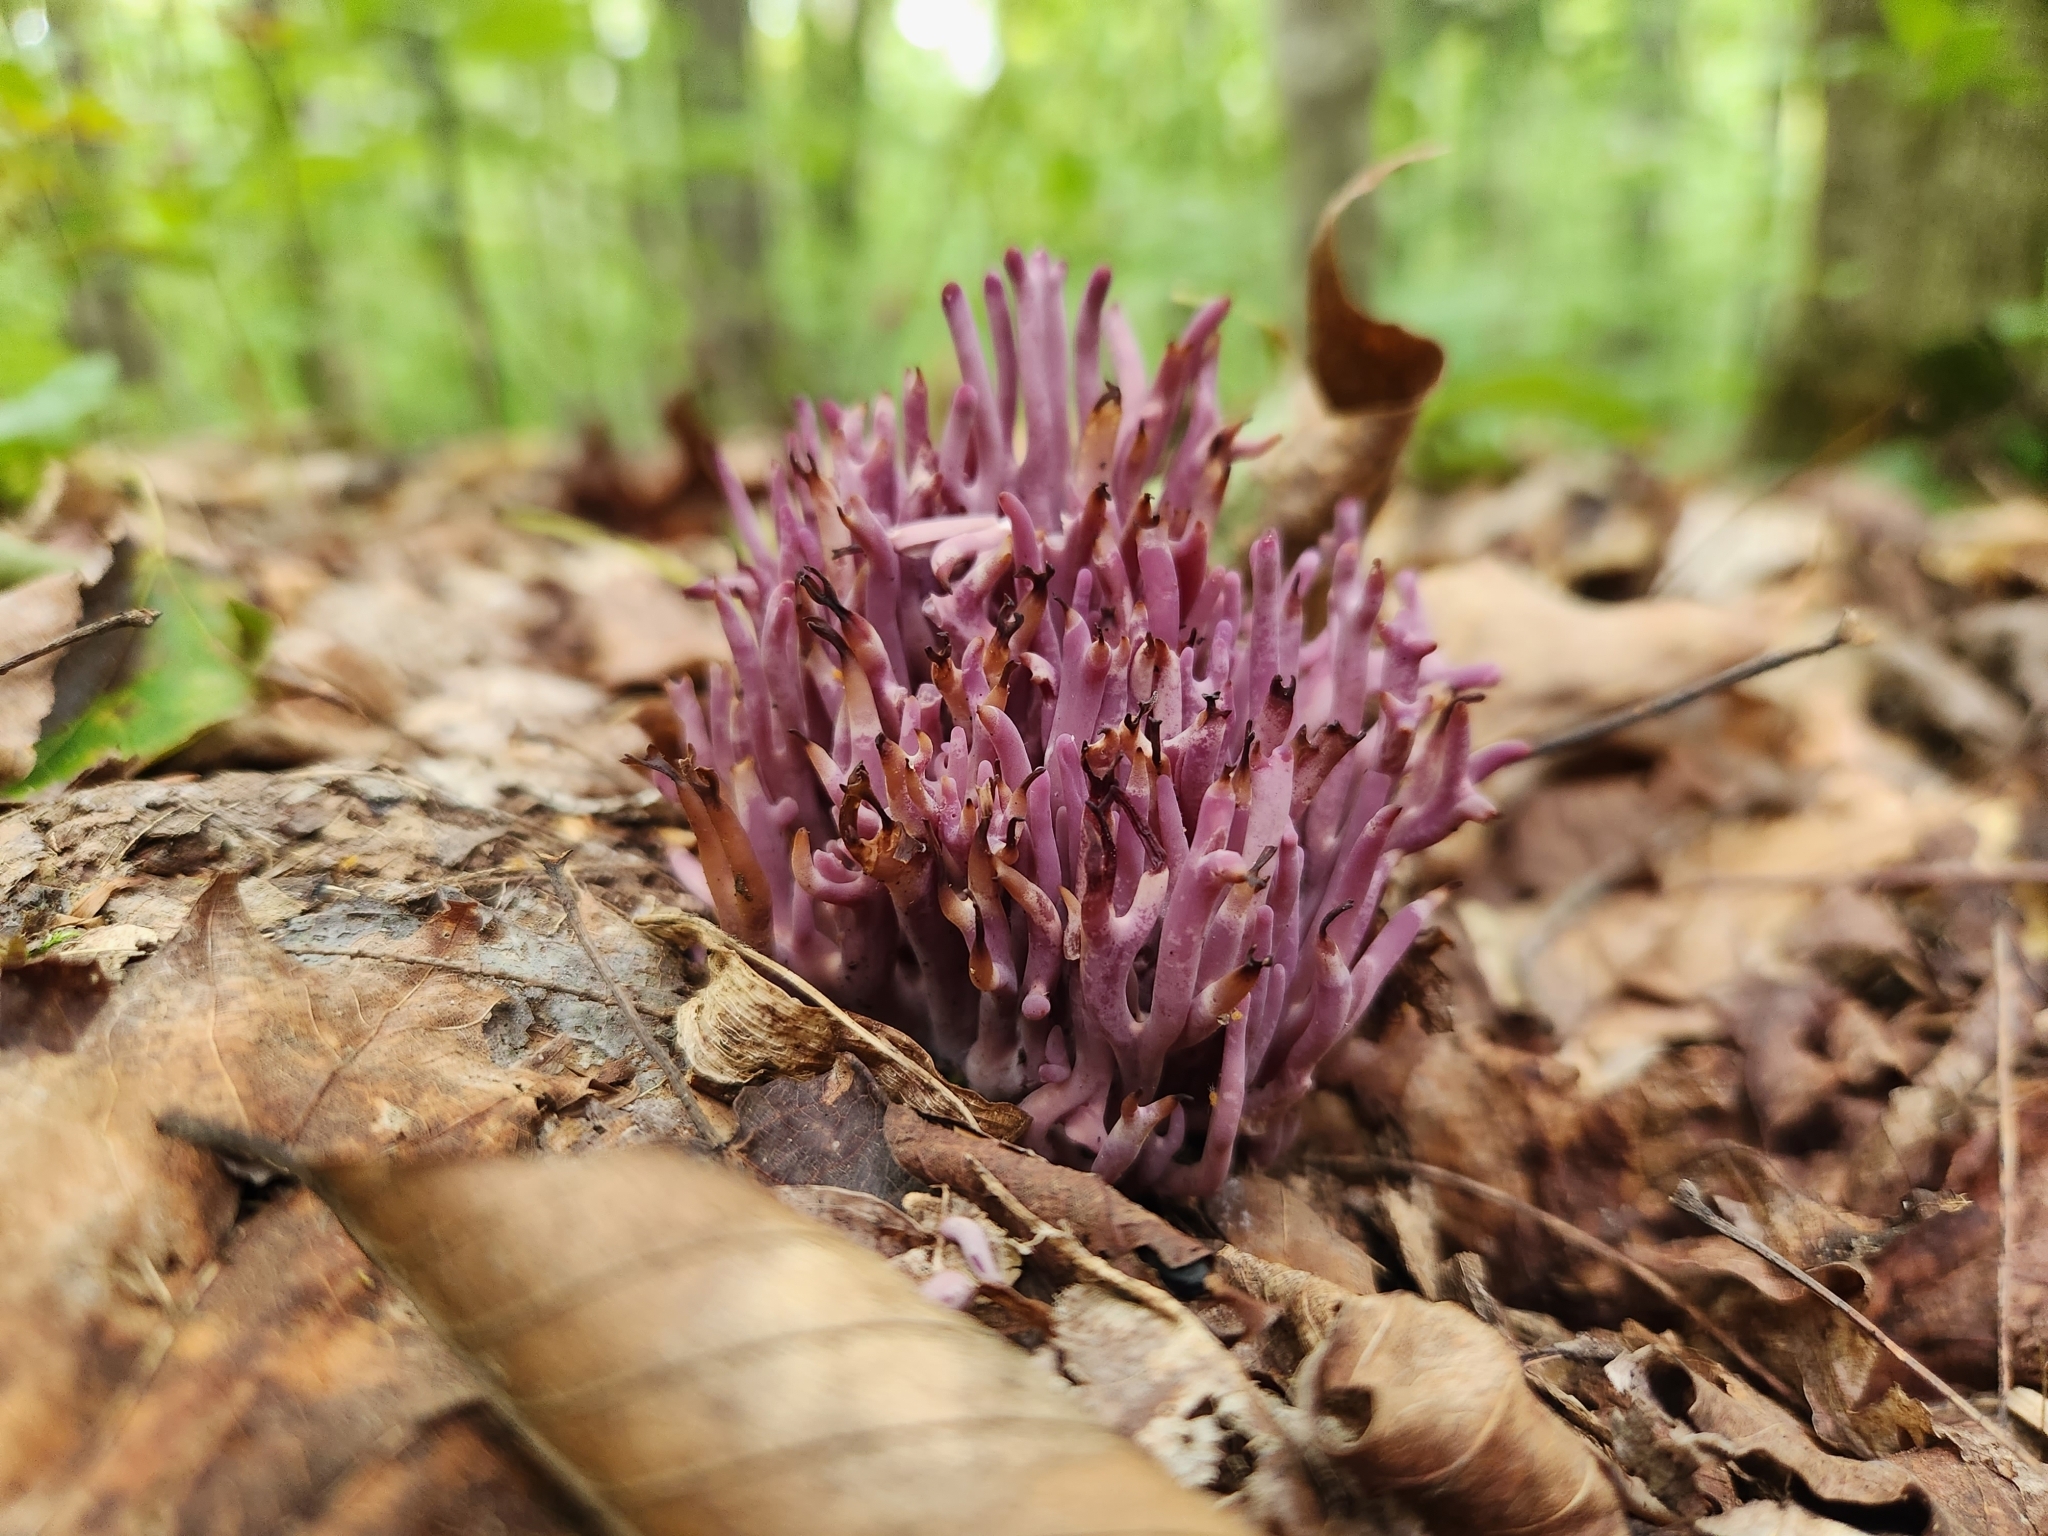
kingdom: Fungi
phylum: Basidiomycota
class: Agaricomycetes
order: Agaricales
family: Clavariaceae
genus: Clavaria
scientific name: Clavaria zollingeri
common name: Violet coral
